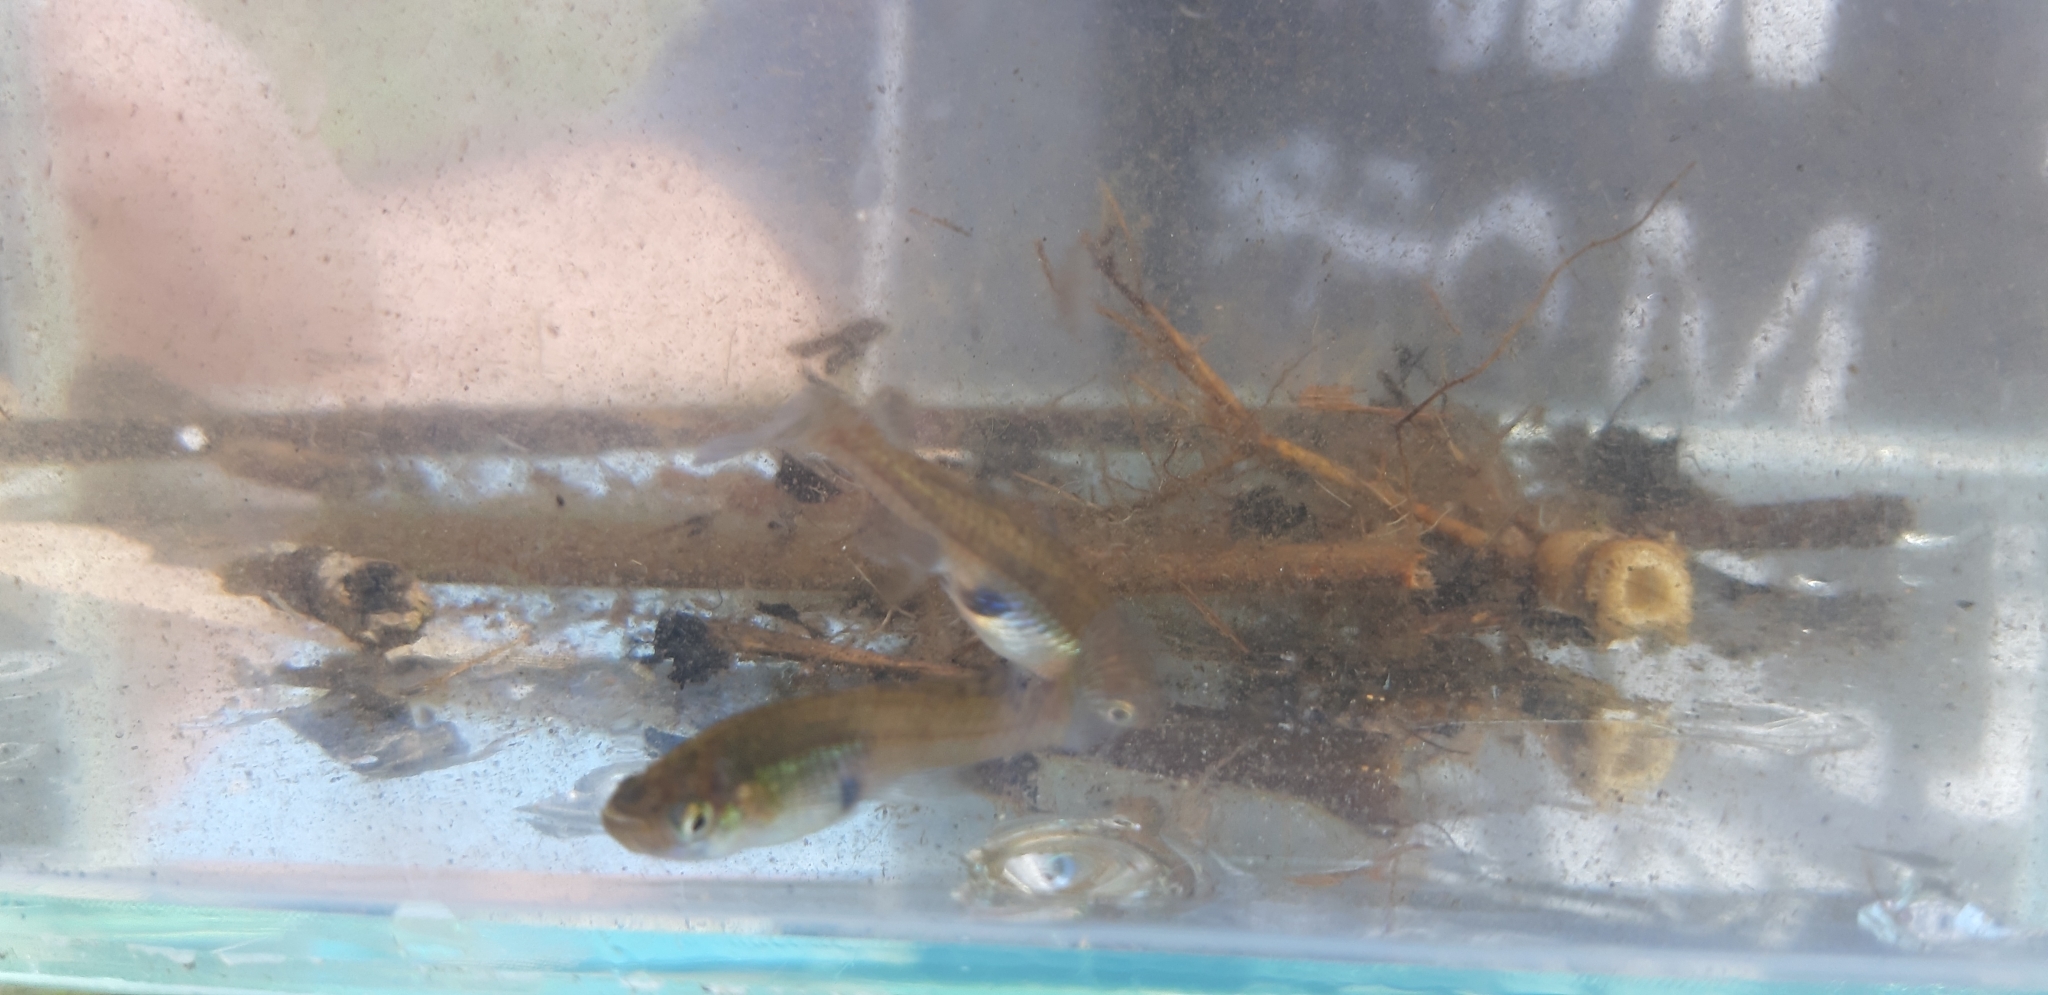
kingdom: Animalia
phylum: Chordata
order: Cyprinodontiformes
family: Poeciliidae
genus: Gambusia
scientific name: Gambusia holbrooki
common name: Eastern mosquitofish
